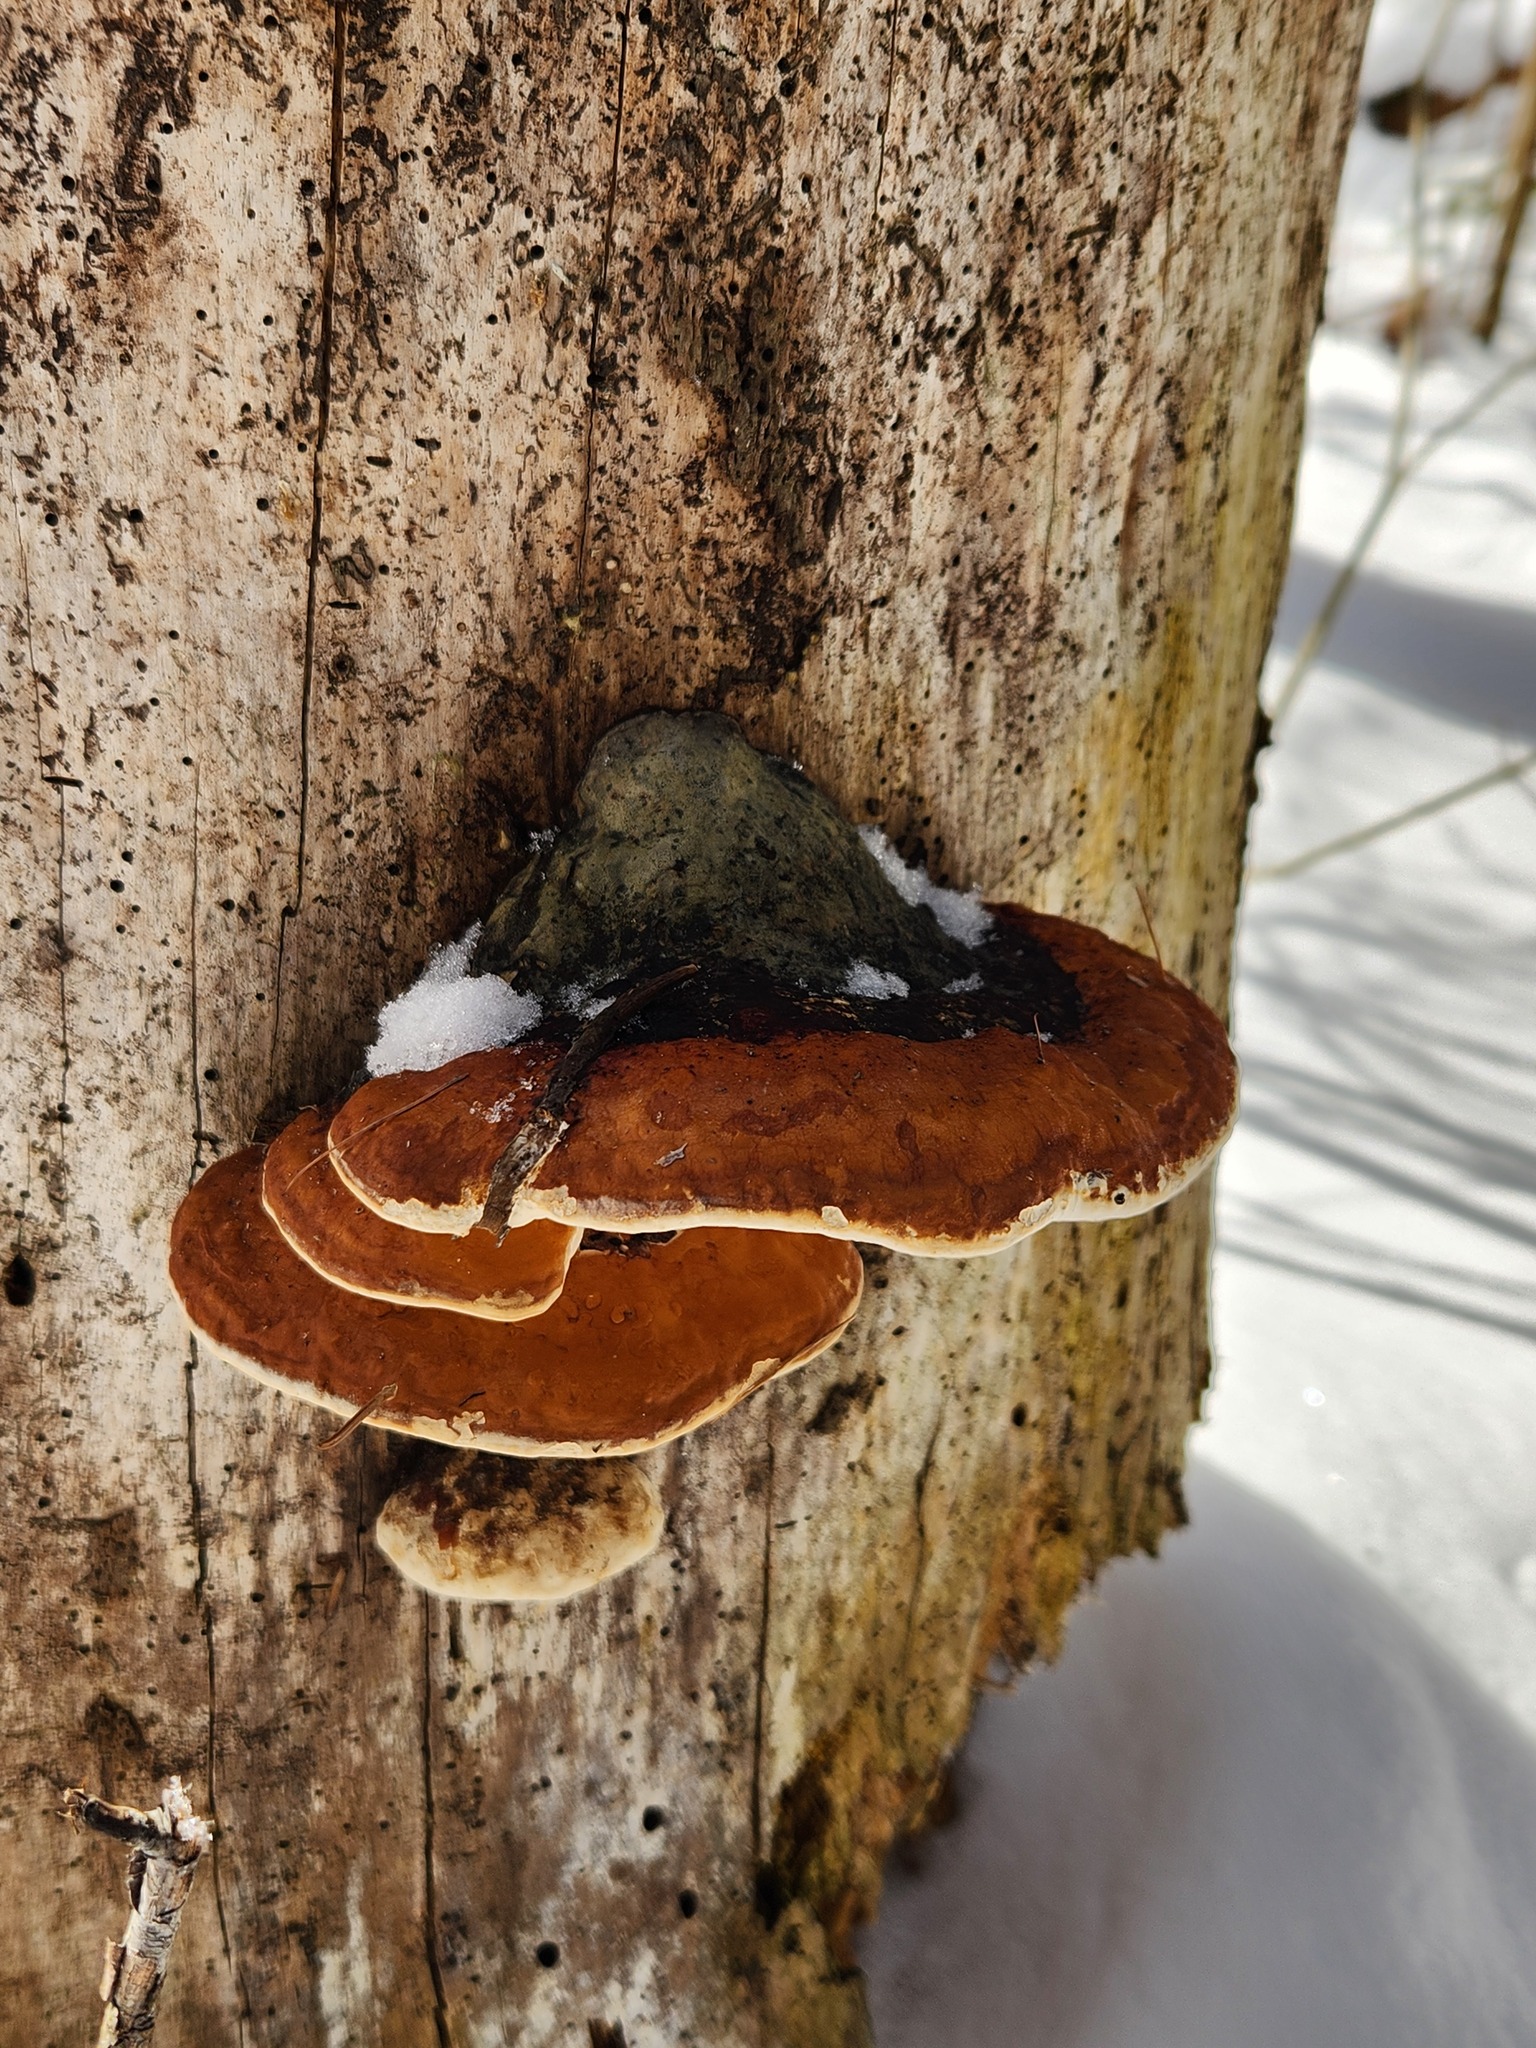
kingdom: Fungi
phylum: Basidiomycota
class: Agaricomycetes
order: Polyporales
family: Fomitopsidaceae
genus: Fomitopsis
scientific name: Fomitopsis mounceae
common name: Northern red belt
